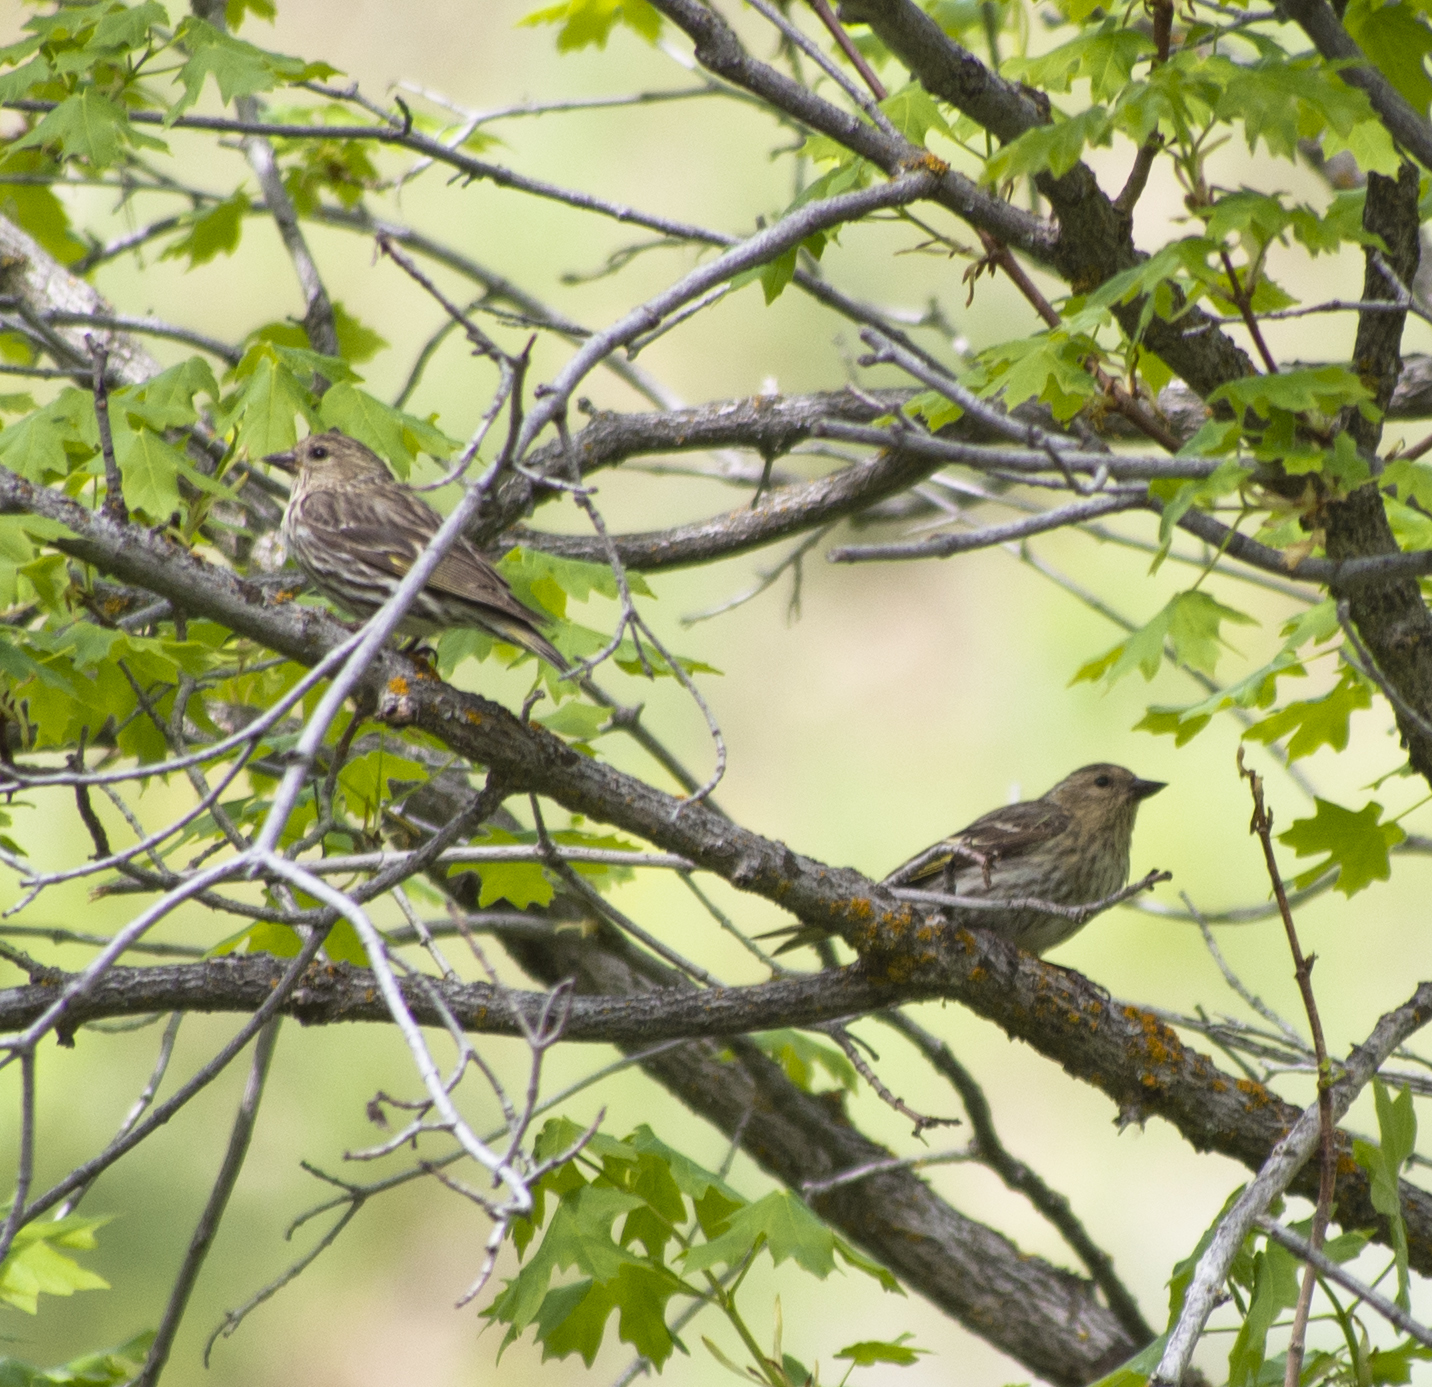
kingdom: Animalia
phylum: Chordata
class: Aves
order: Passeriformes
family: Fringillidae
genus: Spinus
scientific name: Spinus pinus
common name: Pine siskin
